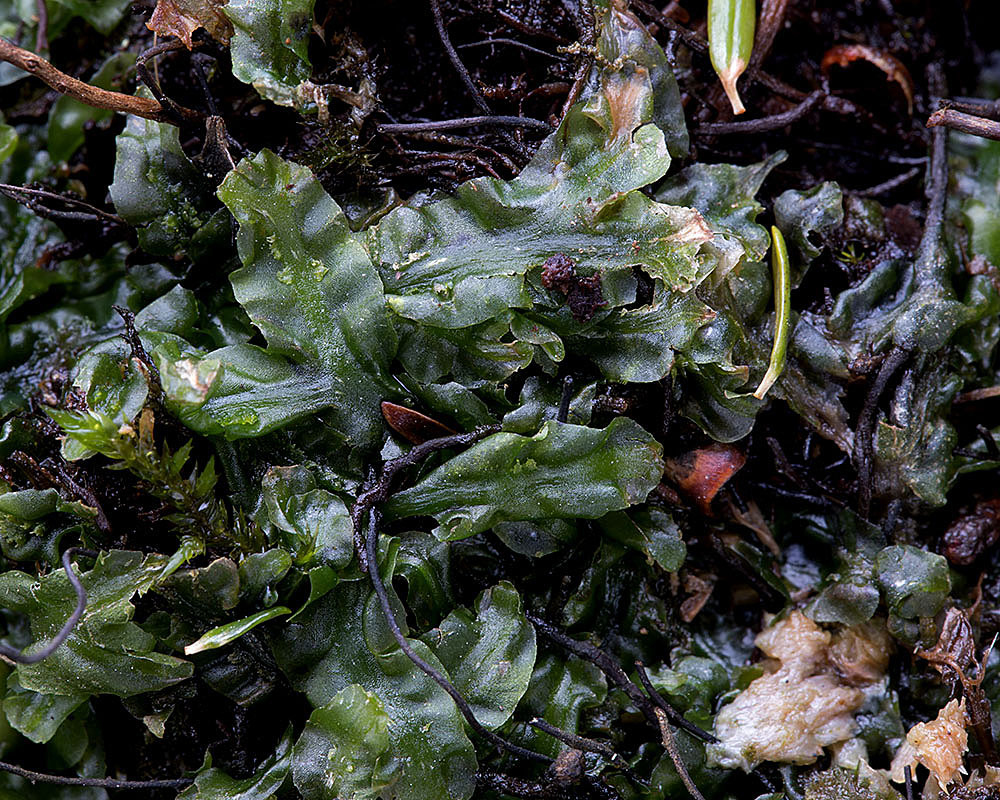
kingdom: Plantae
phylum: Marchantiophyta
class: Jungermanniopsida
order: Pallaviciniales
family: Pallaviciniaceae
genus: Pallavicinia
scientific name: Pallavicinia lyellii
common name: Veilwort
